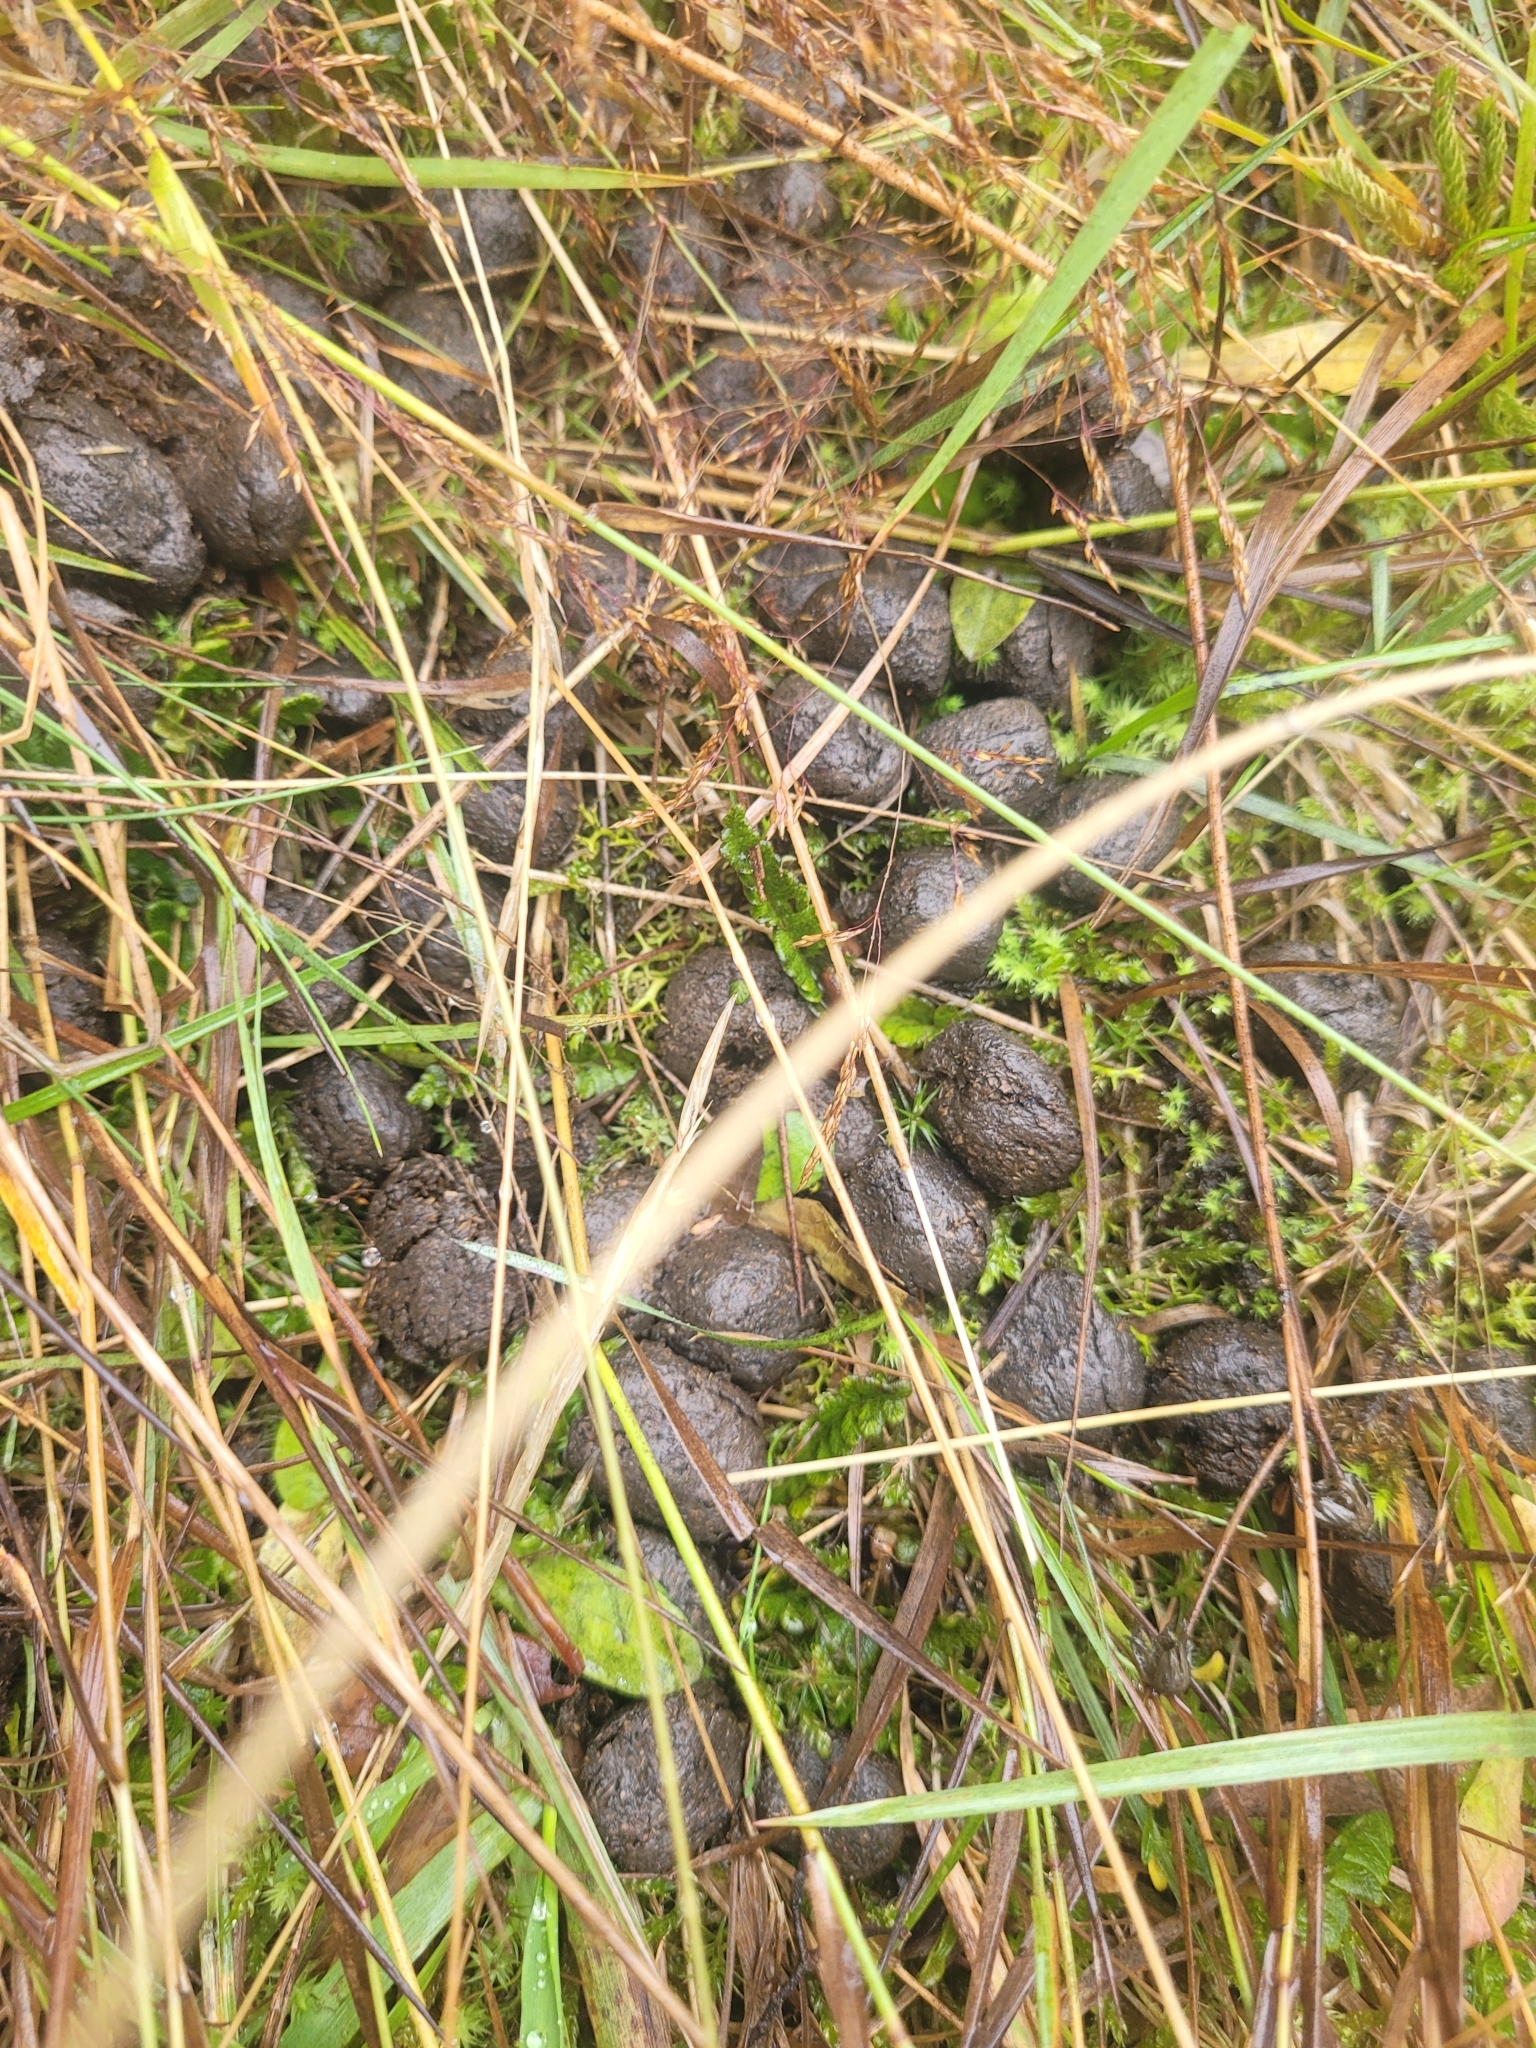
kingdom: Animalia
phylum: Chordata
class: Mammalia
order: Artiodactyla
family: Bovidae
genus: Capra
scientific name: Capra hircus
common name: Domestic goat
